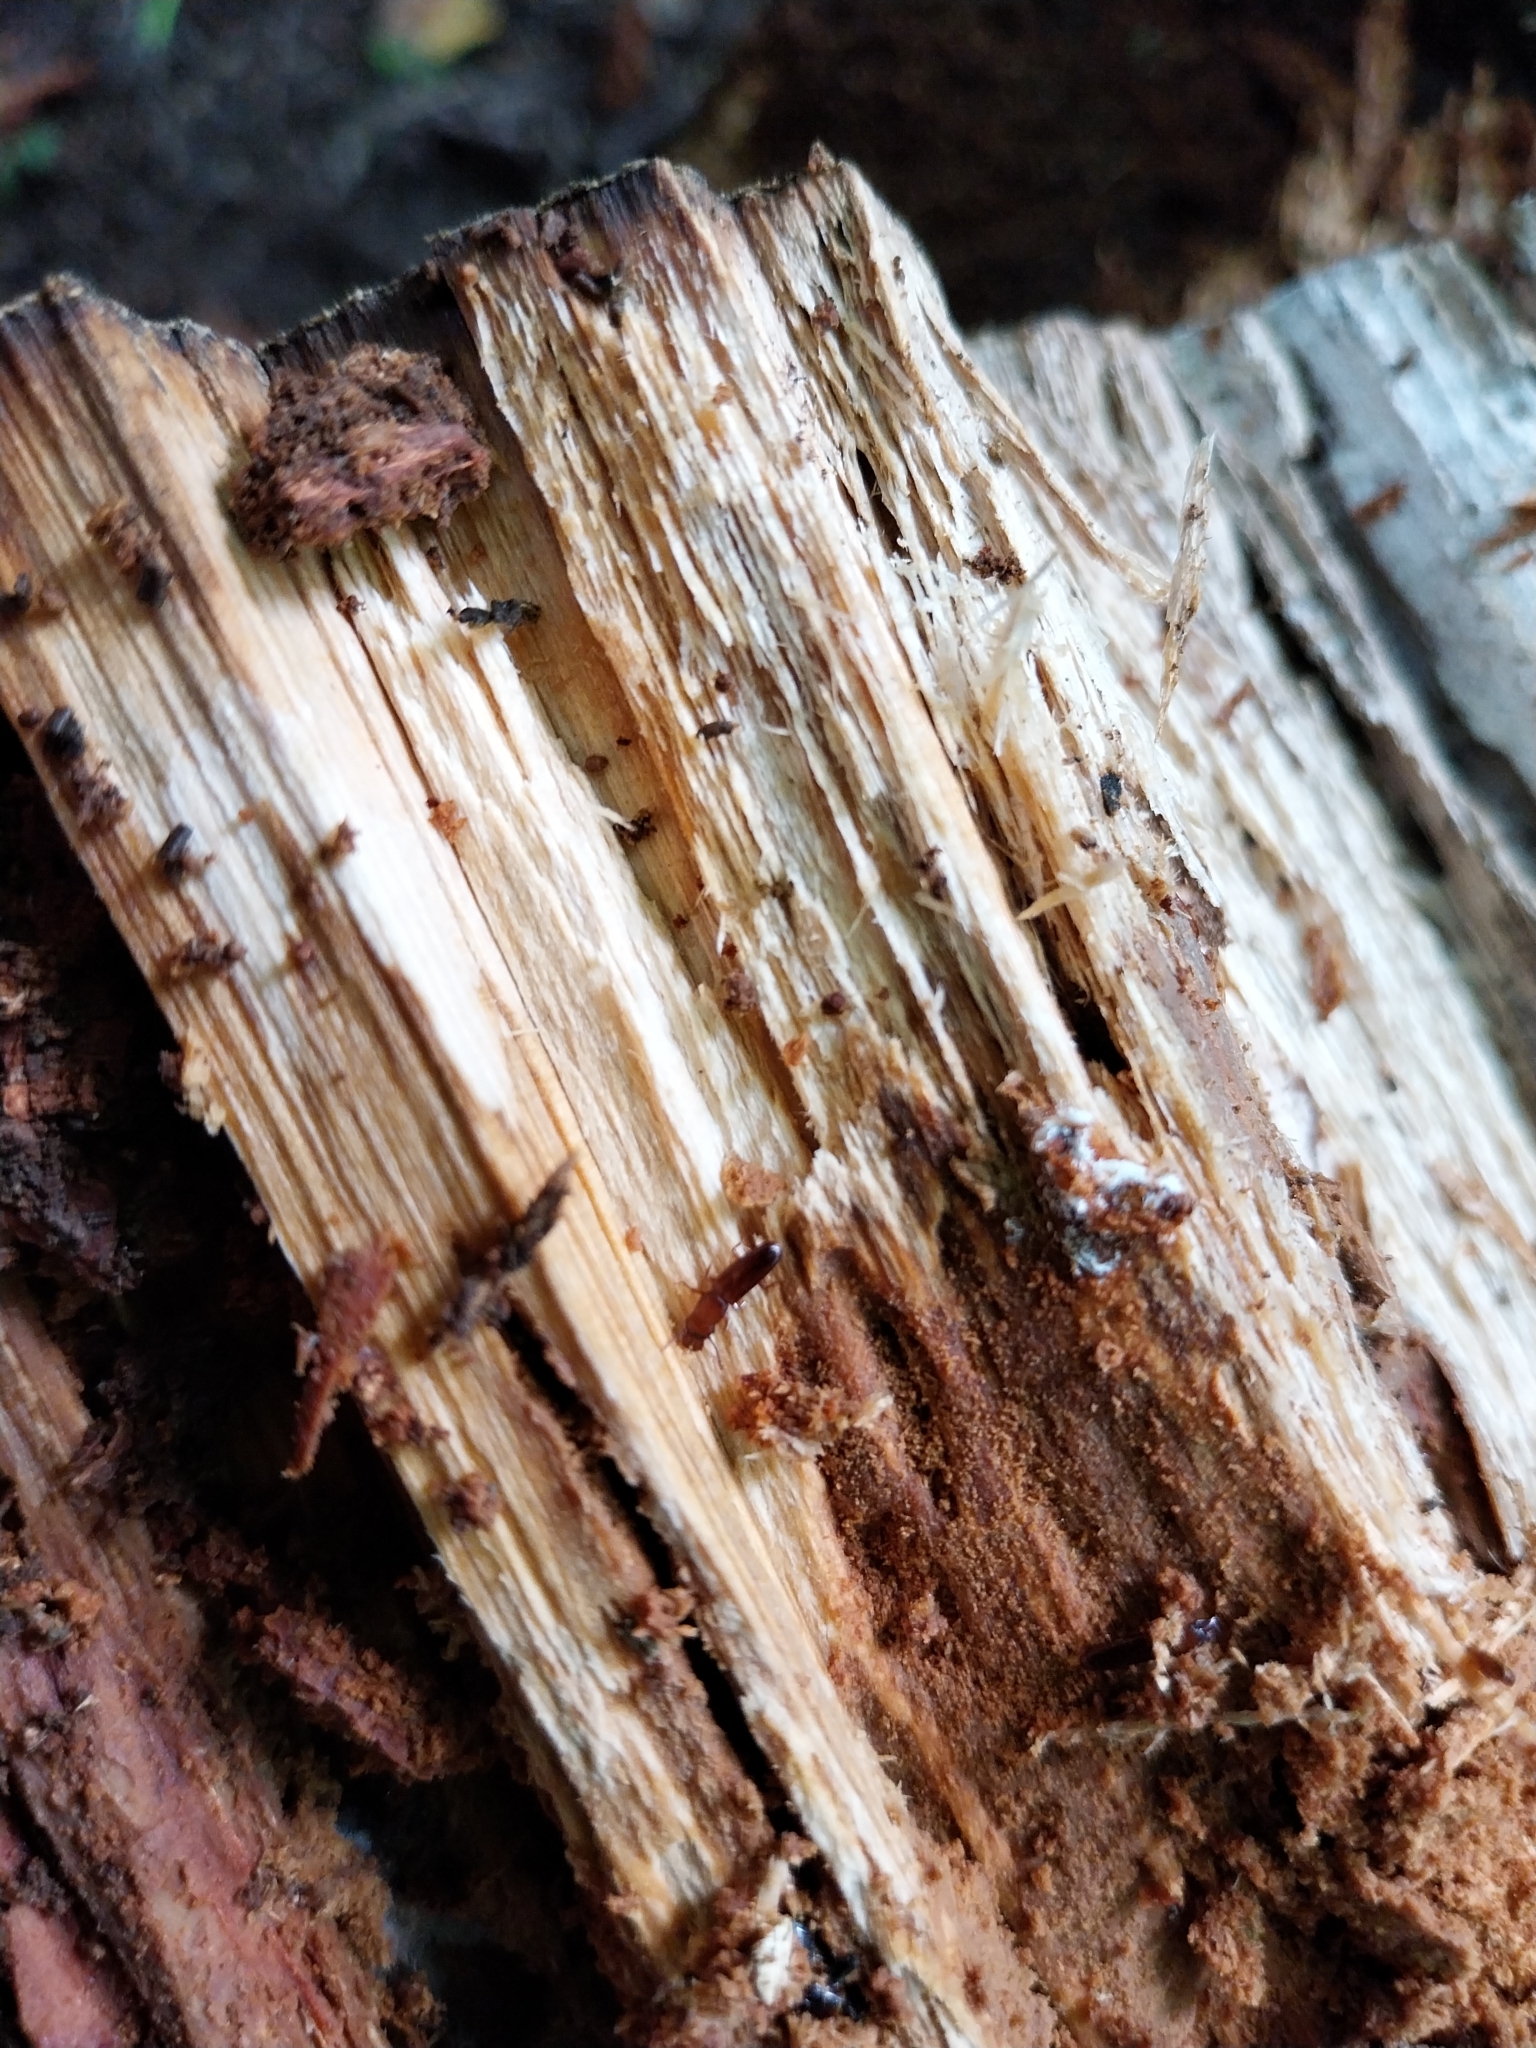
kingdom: Animalia
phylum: Arthropoda
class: Insecta
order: Coleoptera
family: Prostomidae
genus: Prostomis
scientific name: Prostomis mandibularis
